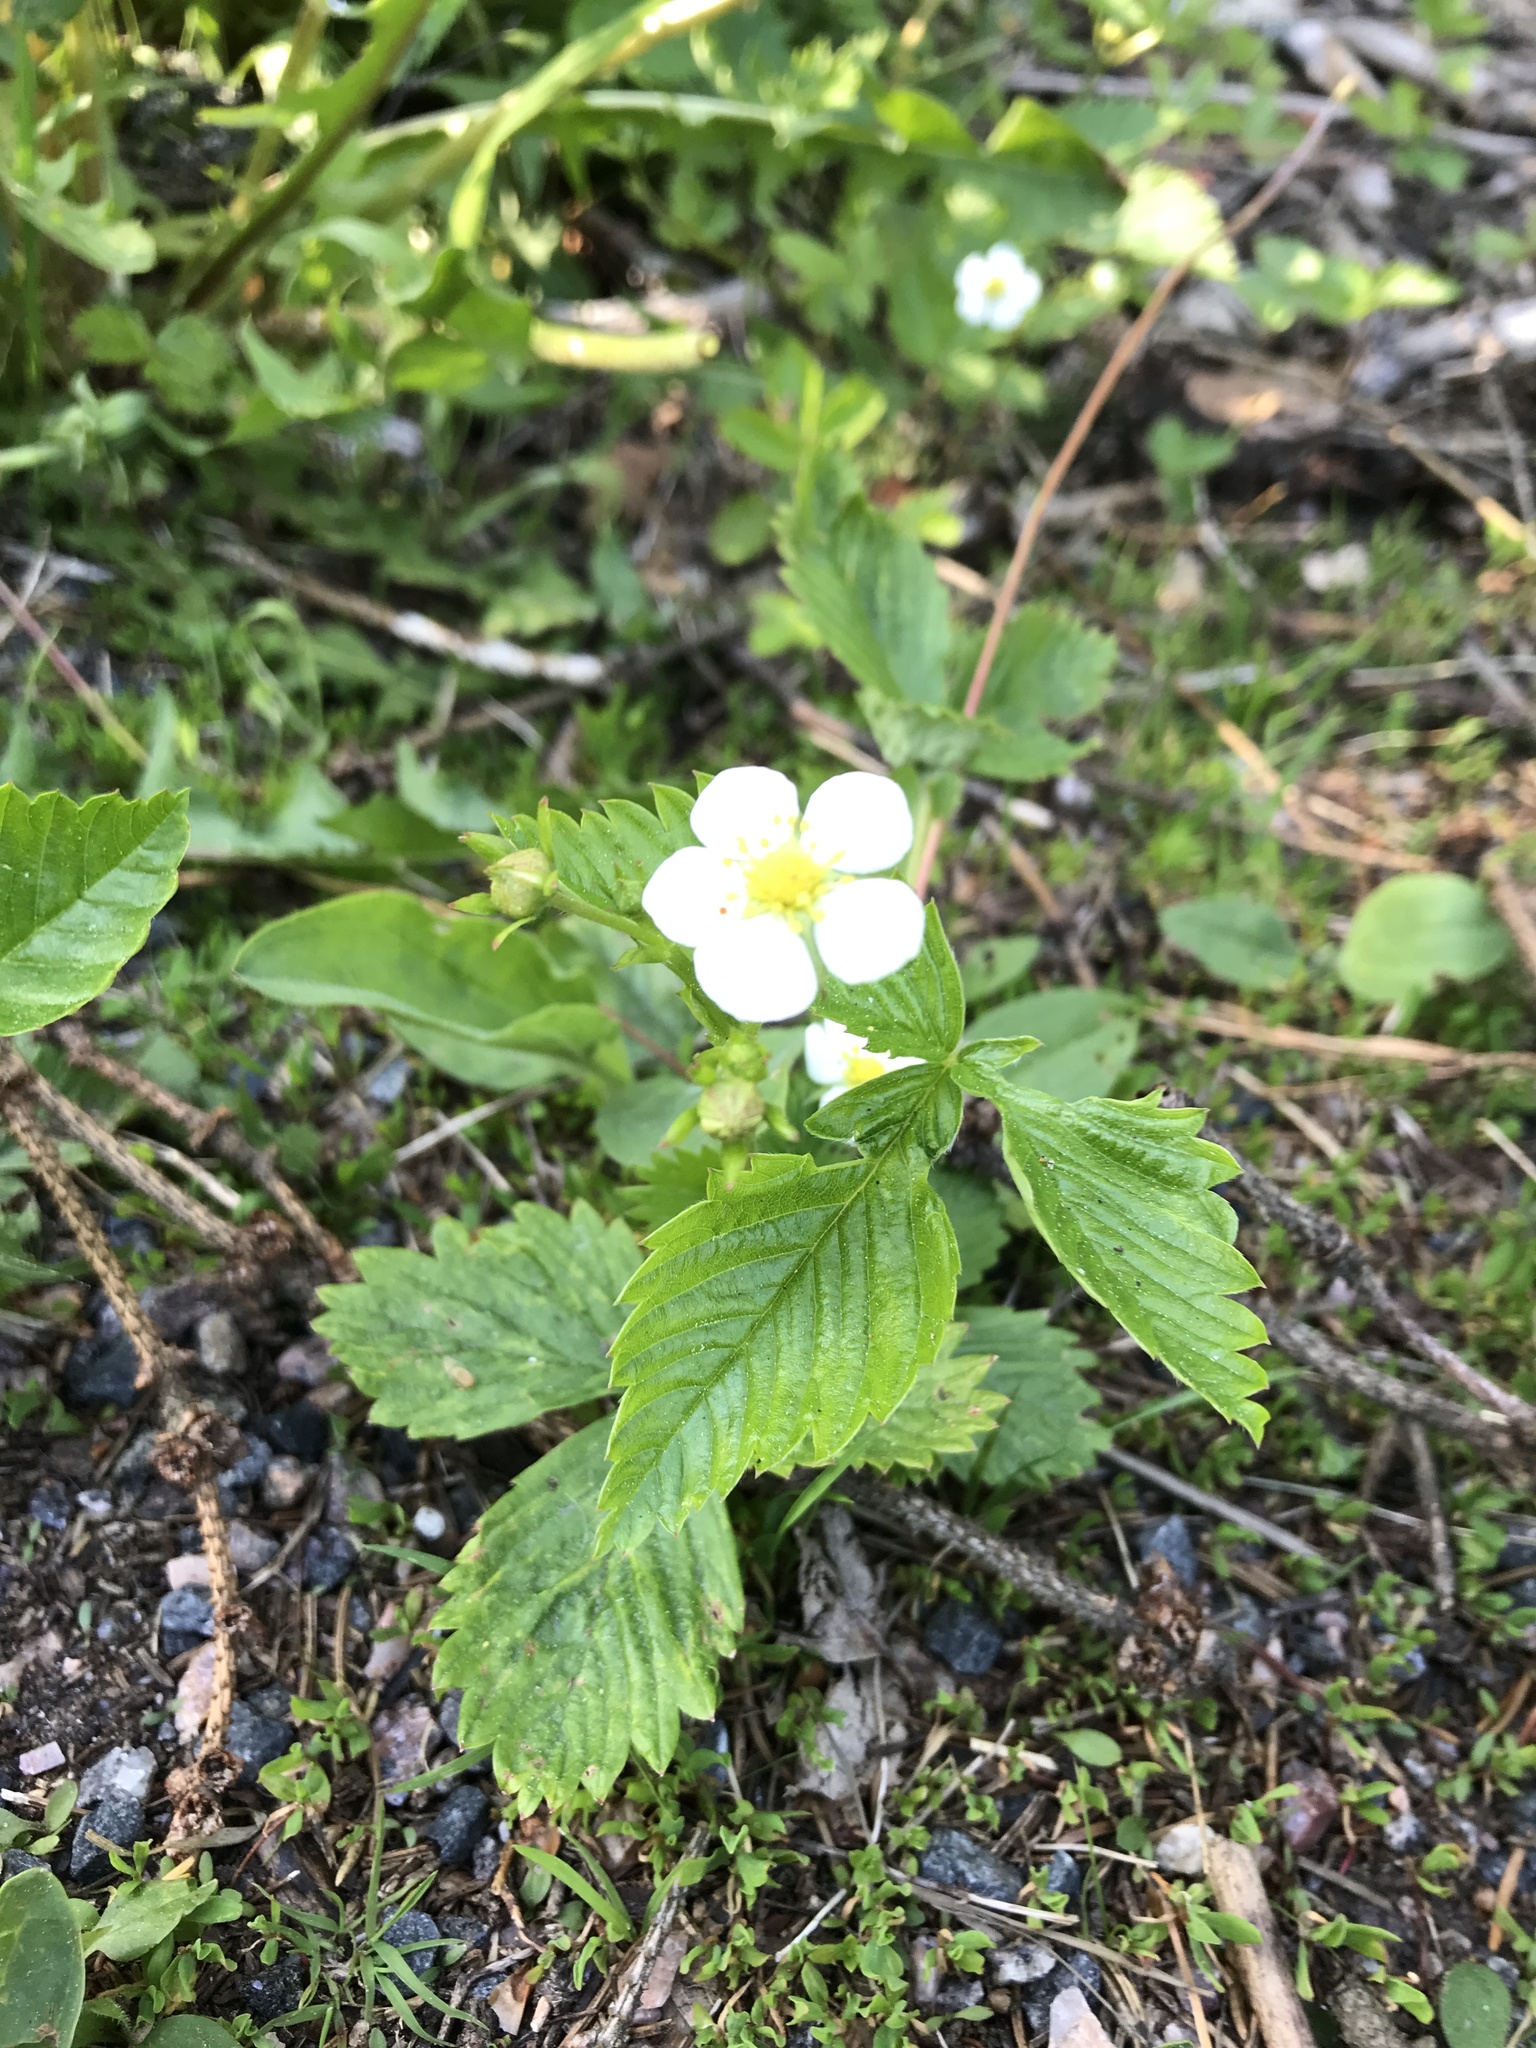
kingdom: Plantae
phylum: Tracheophyta
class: Magnoliopsida
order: Rosales
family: Rosaceae
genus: Fragaria
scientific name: Fragaria vesca
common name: Wild strawberry
